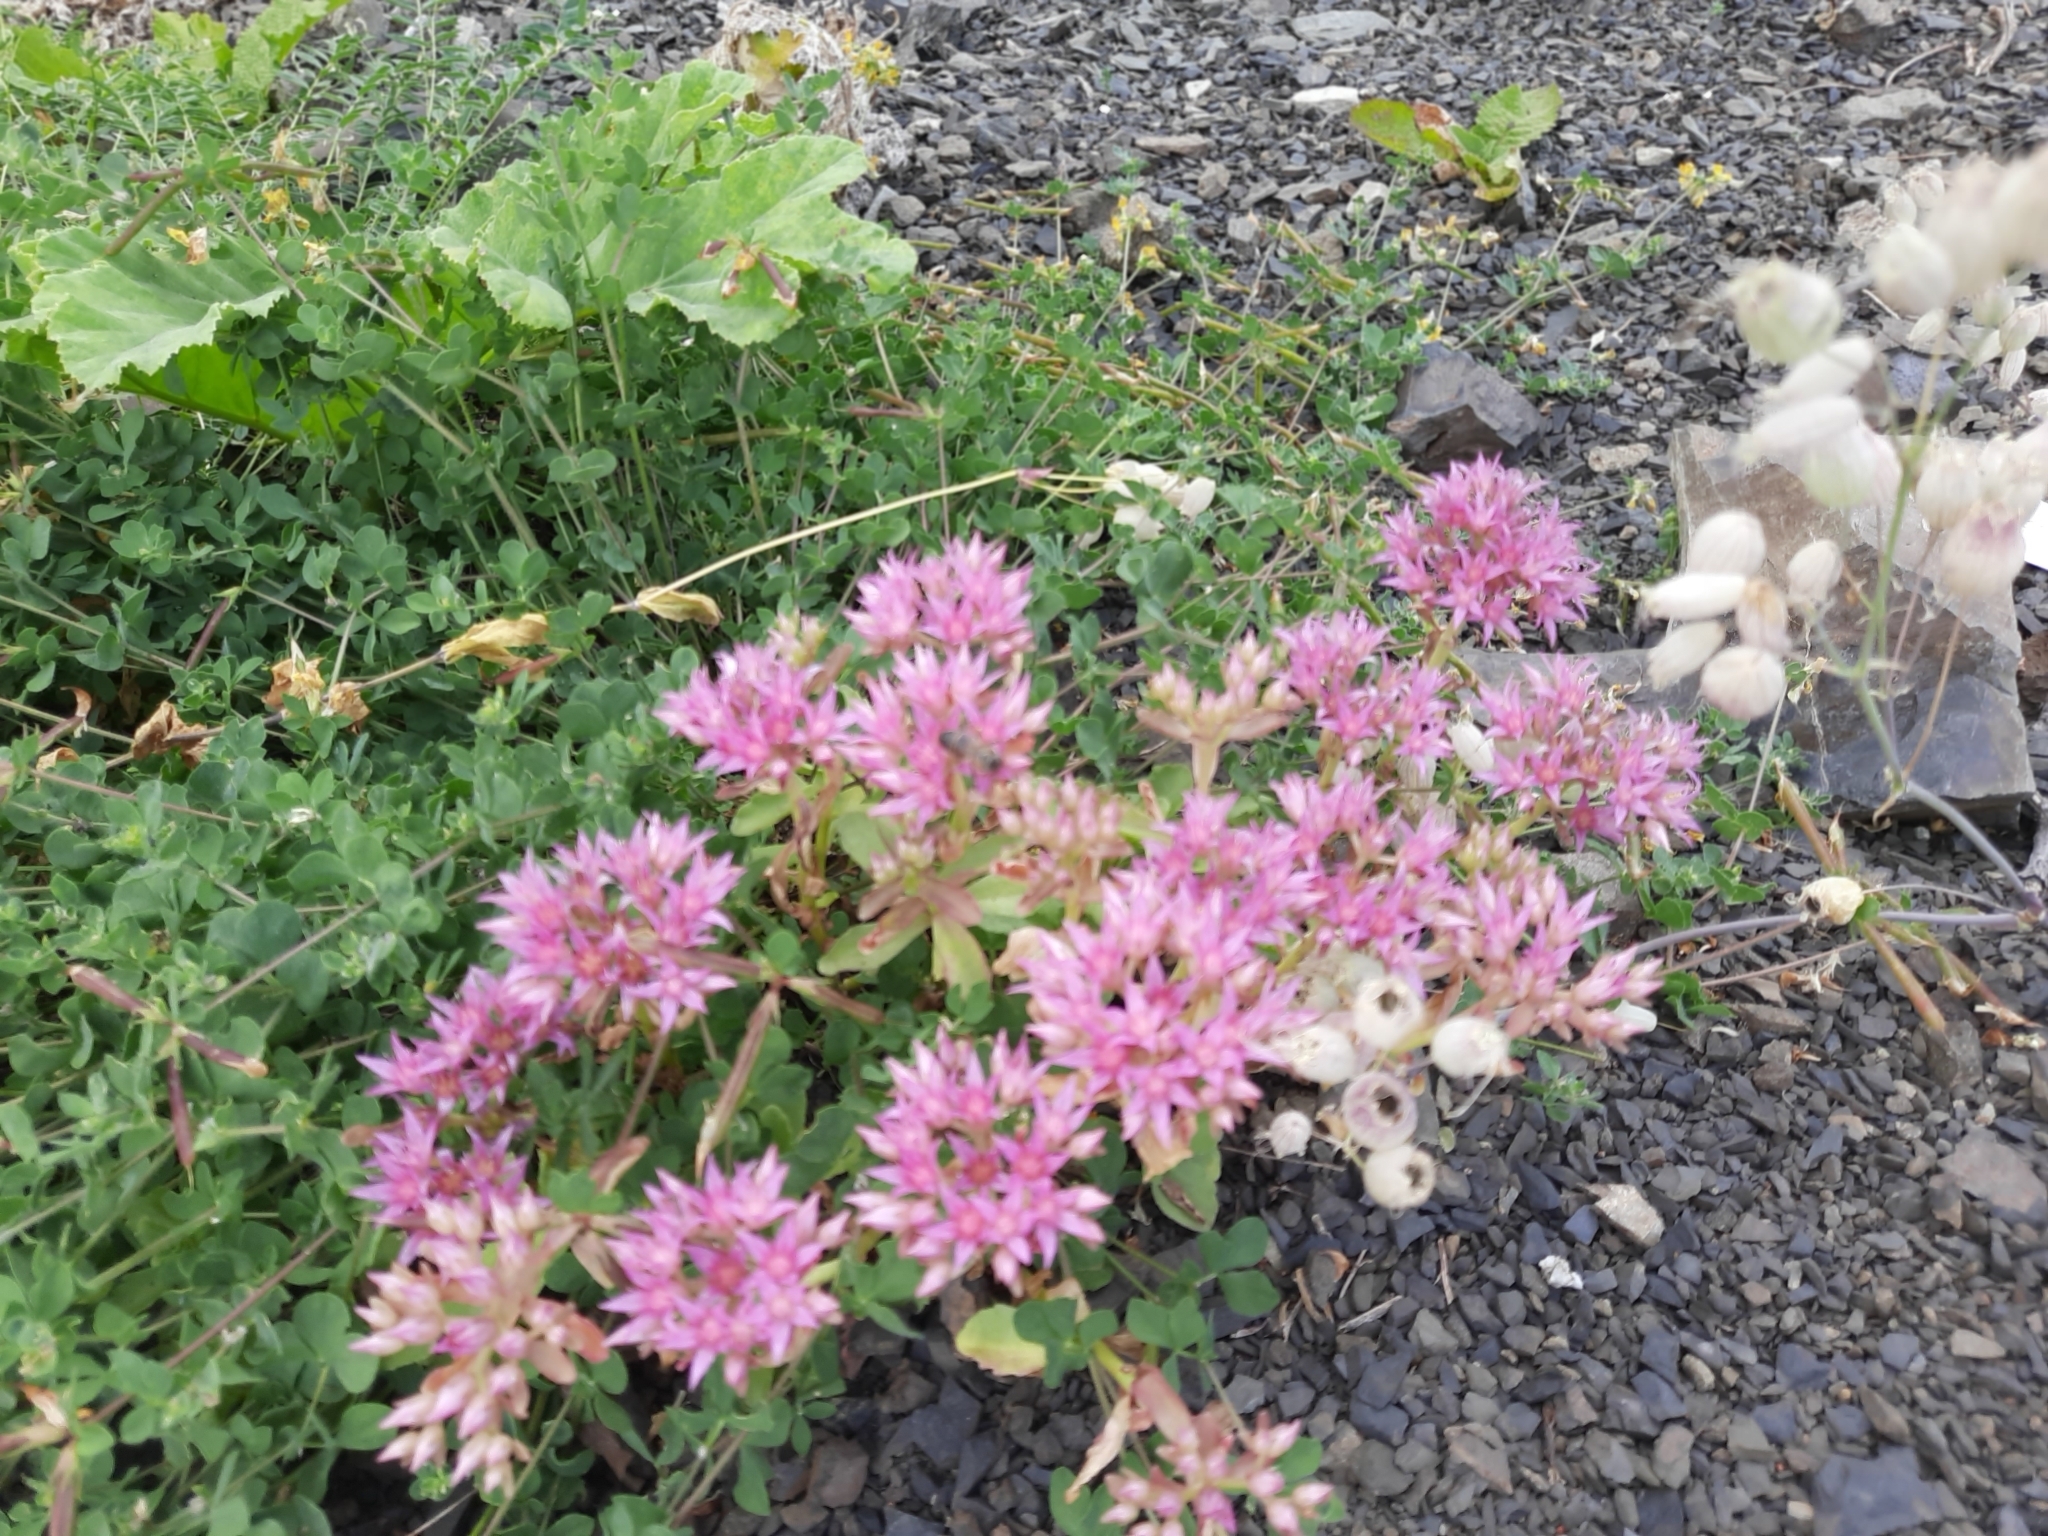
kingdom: Plantae
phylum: Tracheophyta
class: Magnoliopsida
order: Saxifragales
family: Crassulaceae
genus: Phedimus
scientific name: Phedimus spurius
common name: Caucasian stonecrop
